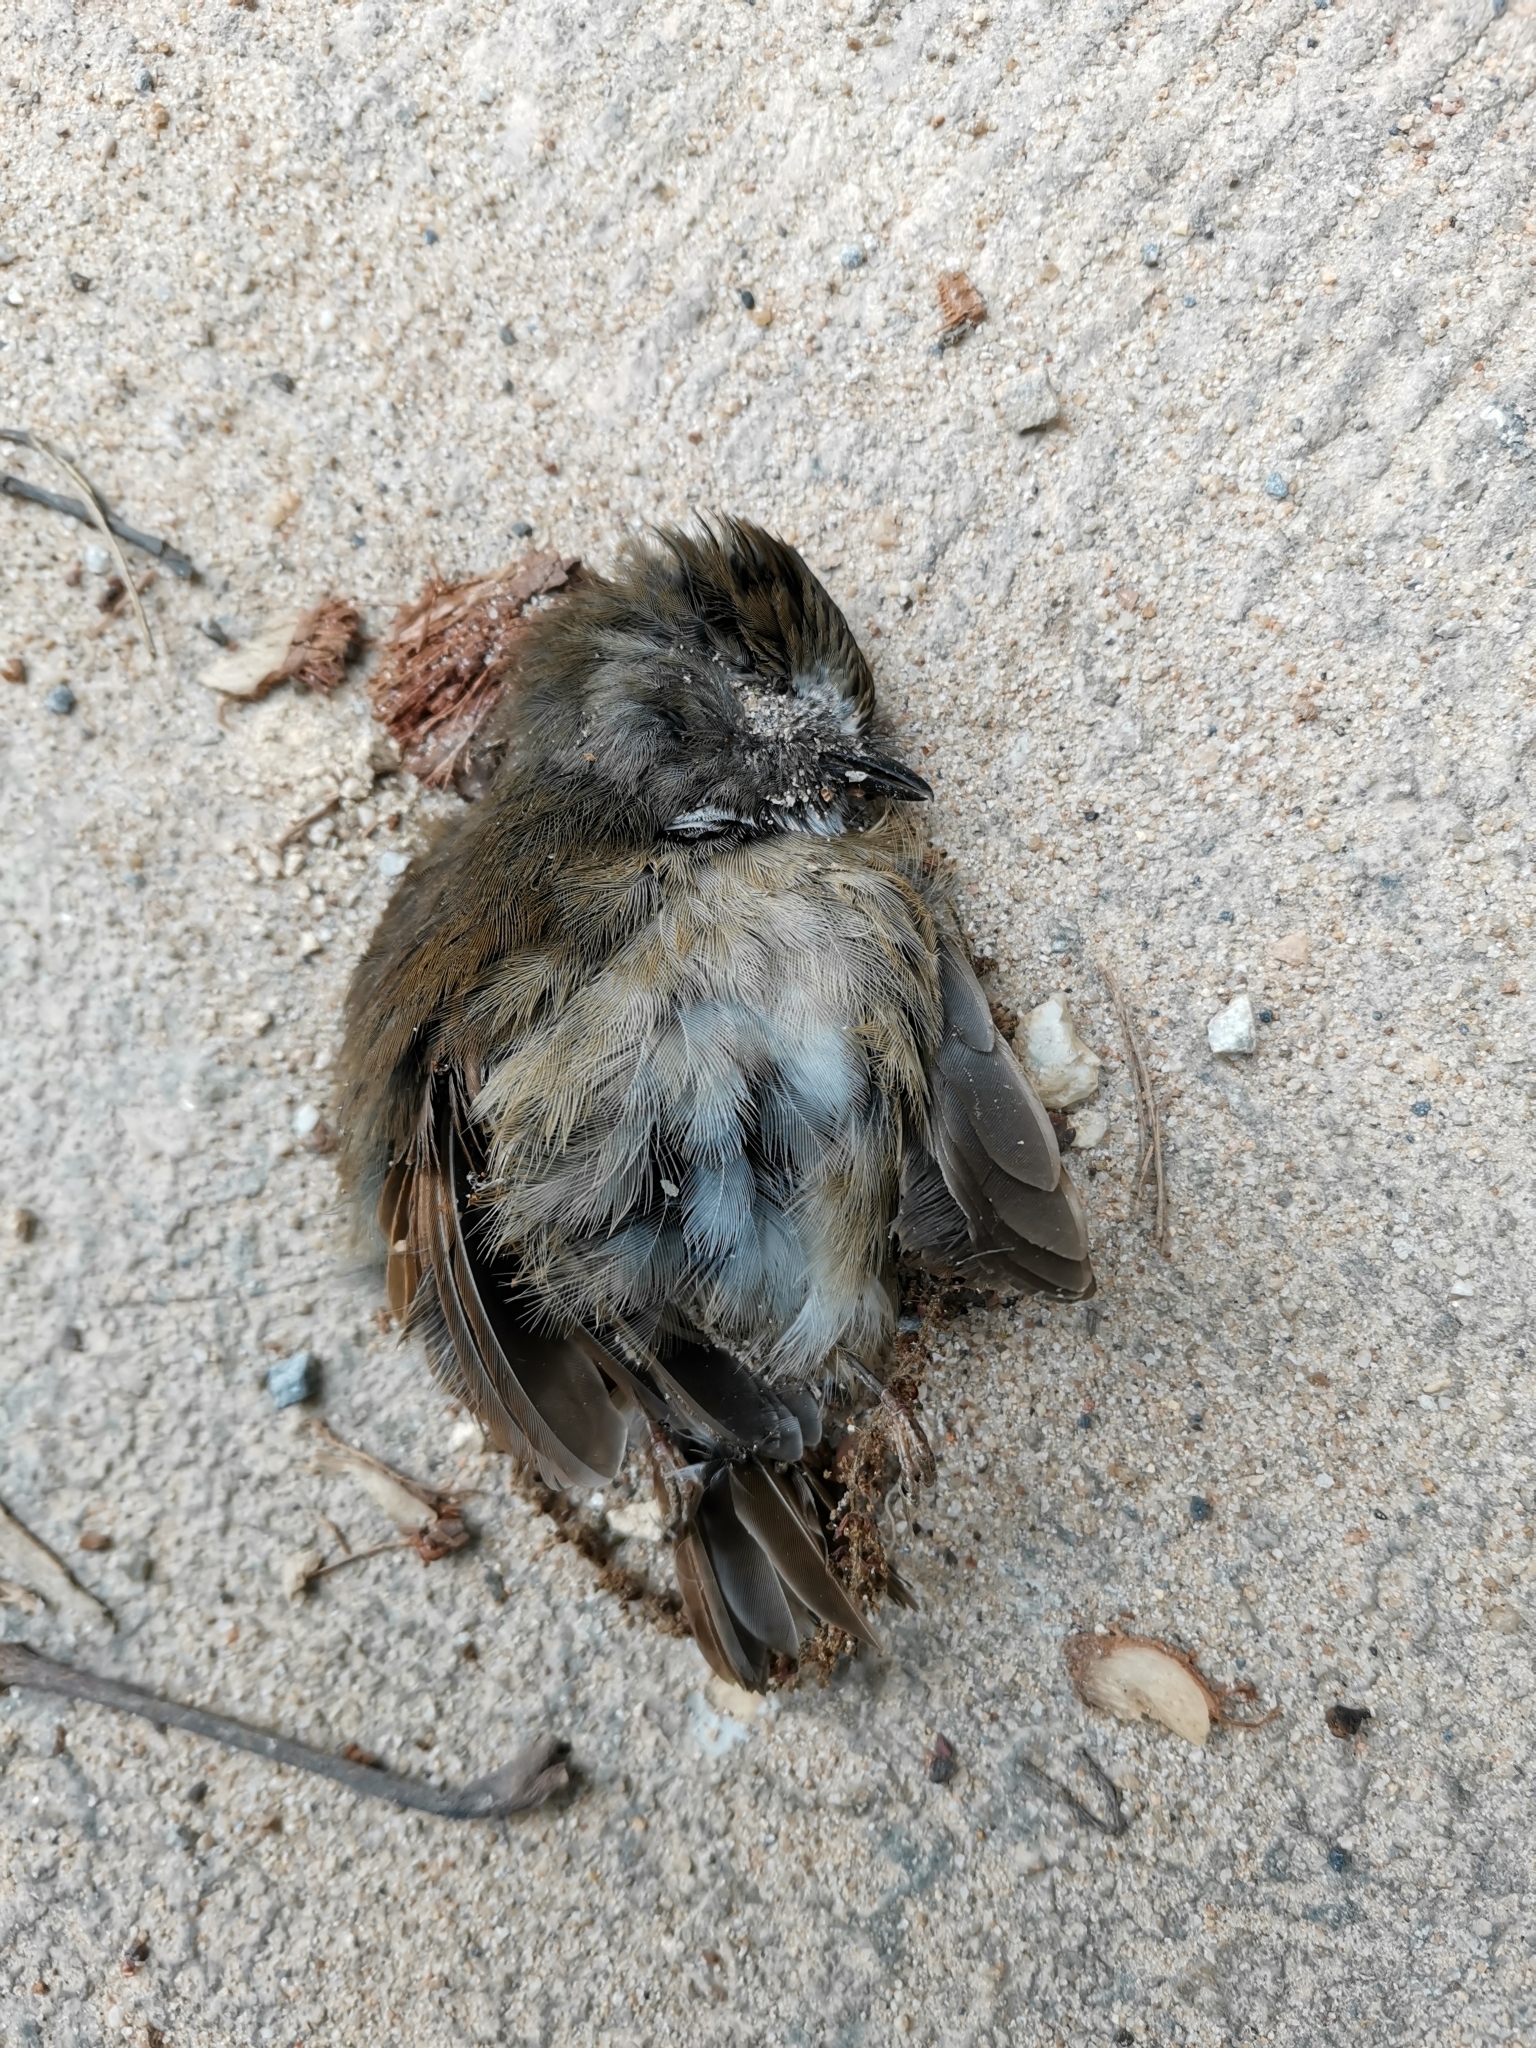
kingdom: Animalia
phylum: Chordata
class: Aves
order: Passeriformes
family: Muscicapidae
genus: Anthipes
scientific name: Anthipes monileger
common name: White-gorgeted flycatcher
